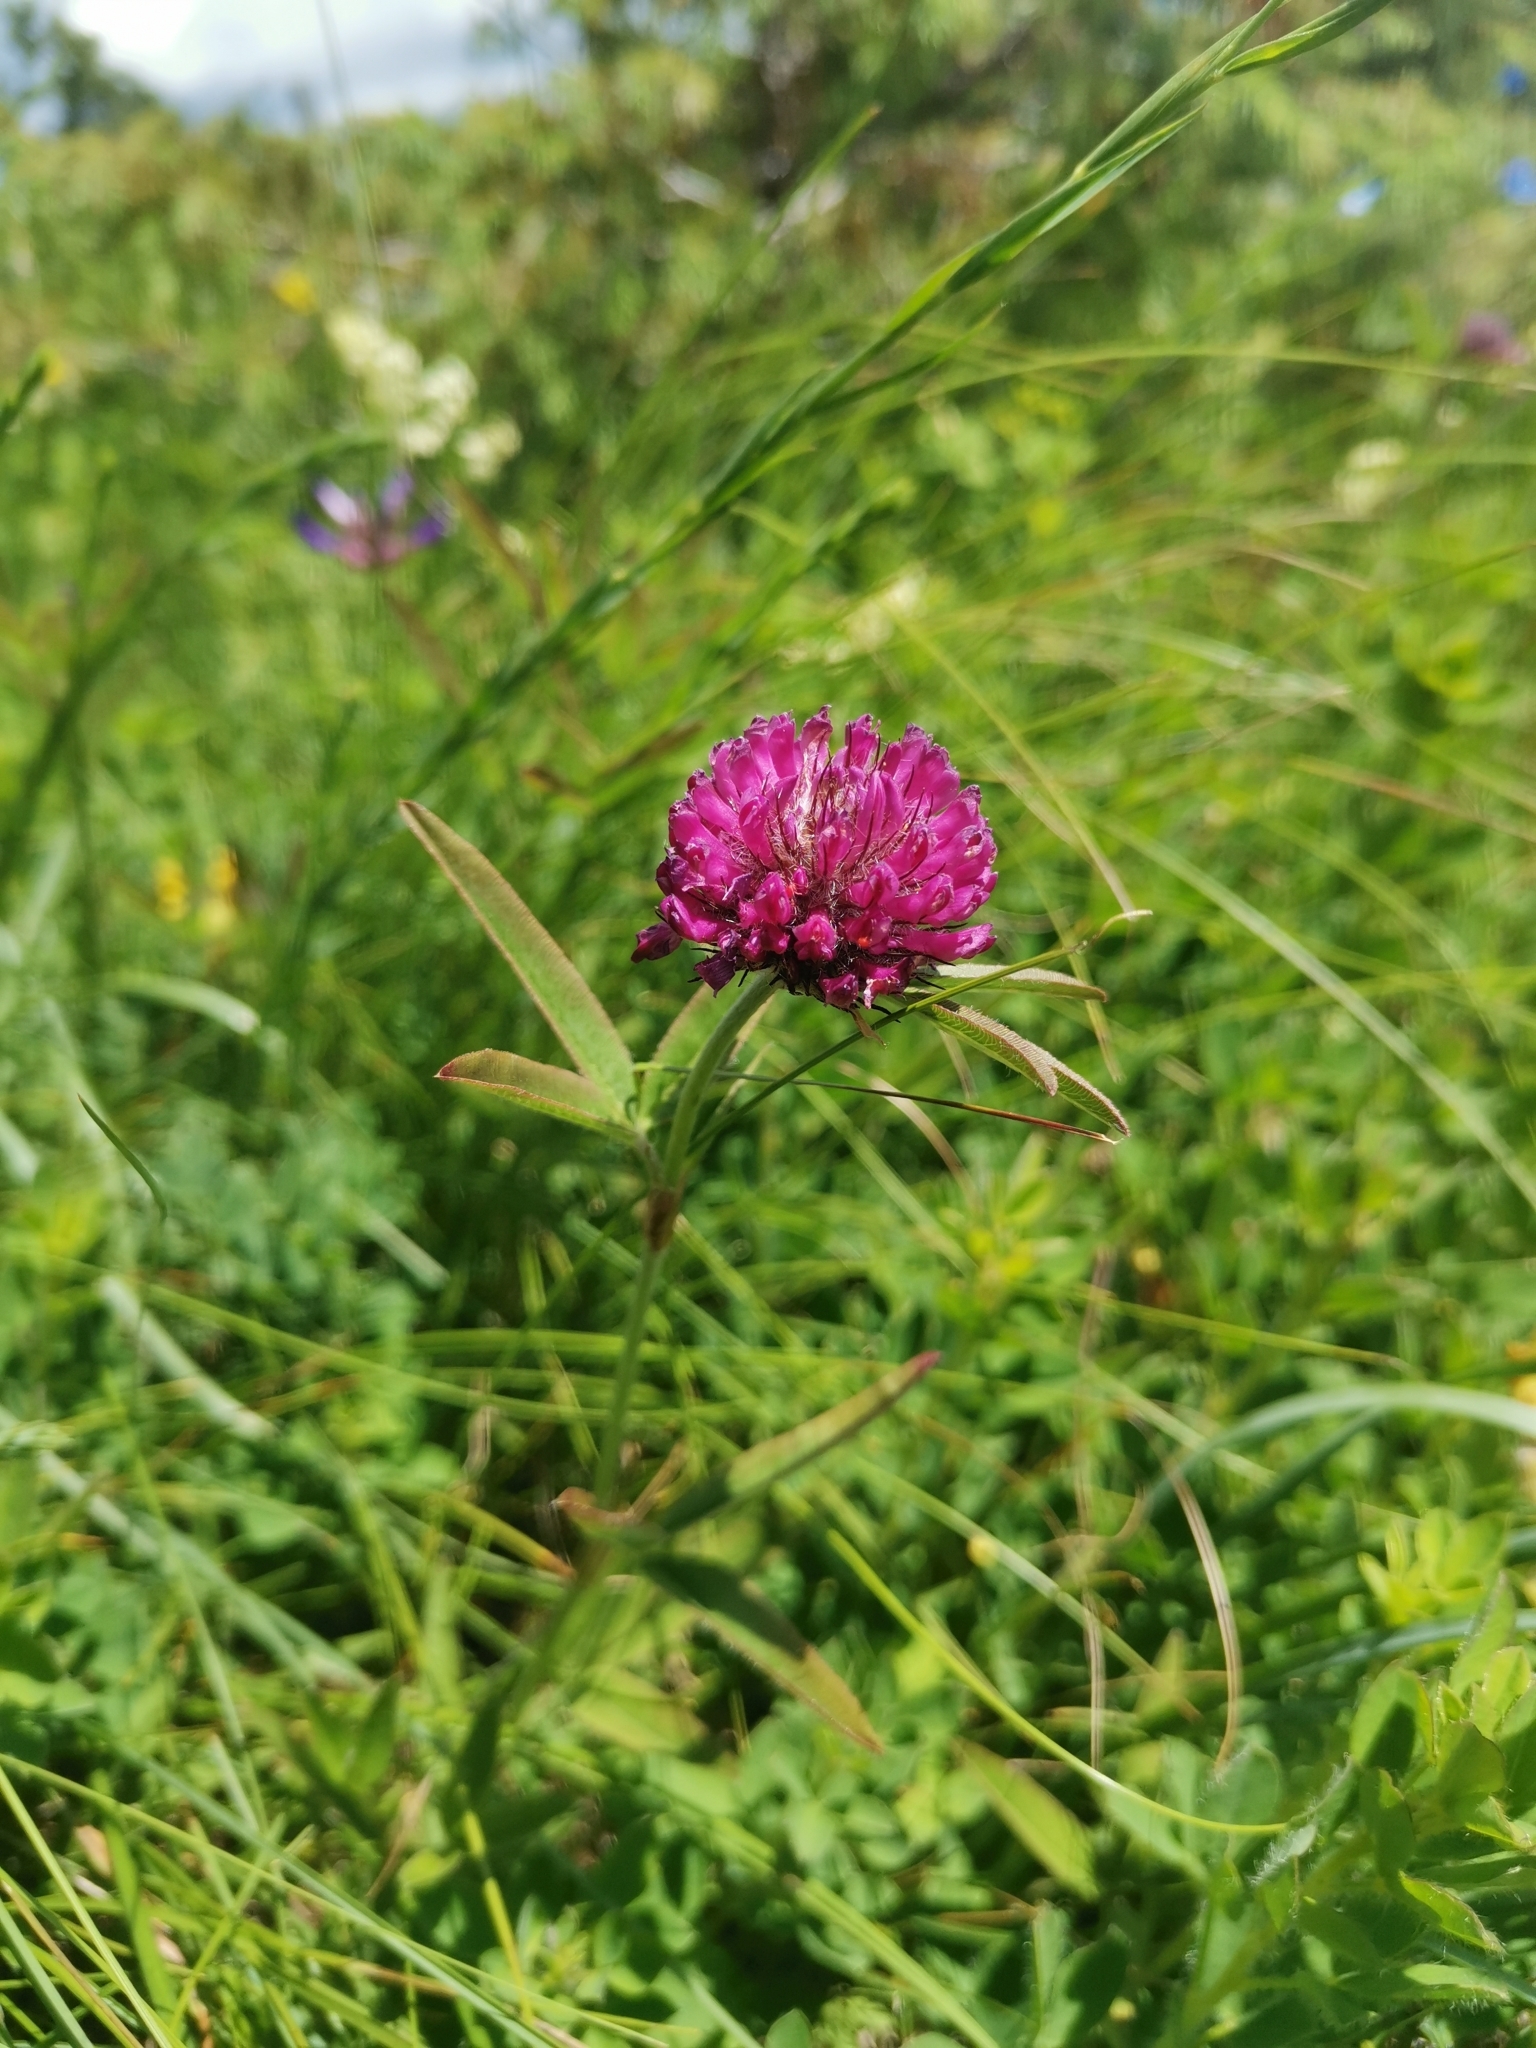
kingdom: Plantae
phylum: Tracheophyta
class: Magnoliopsida
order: Fabales
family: Fabaceae
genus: Trifolium
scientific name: Trifolium alpestre
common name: Owl-head clover
